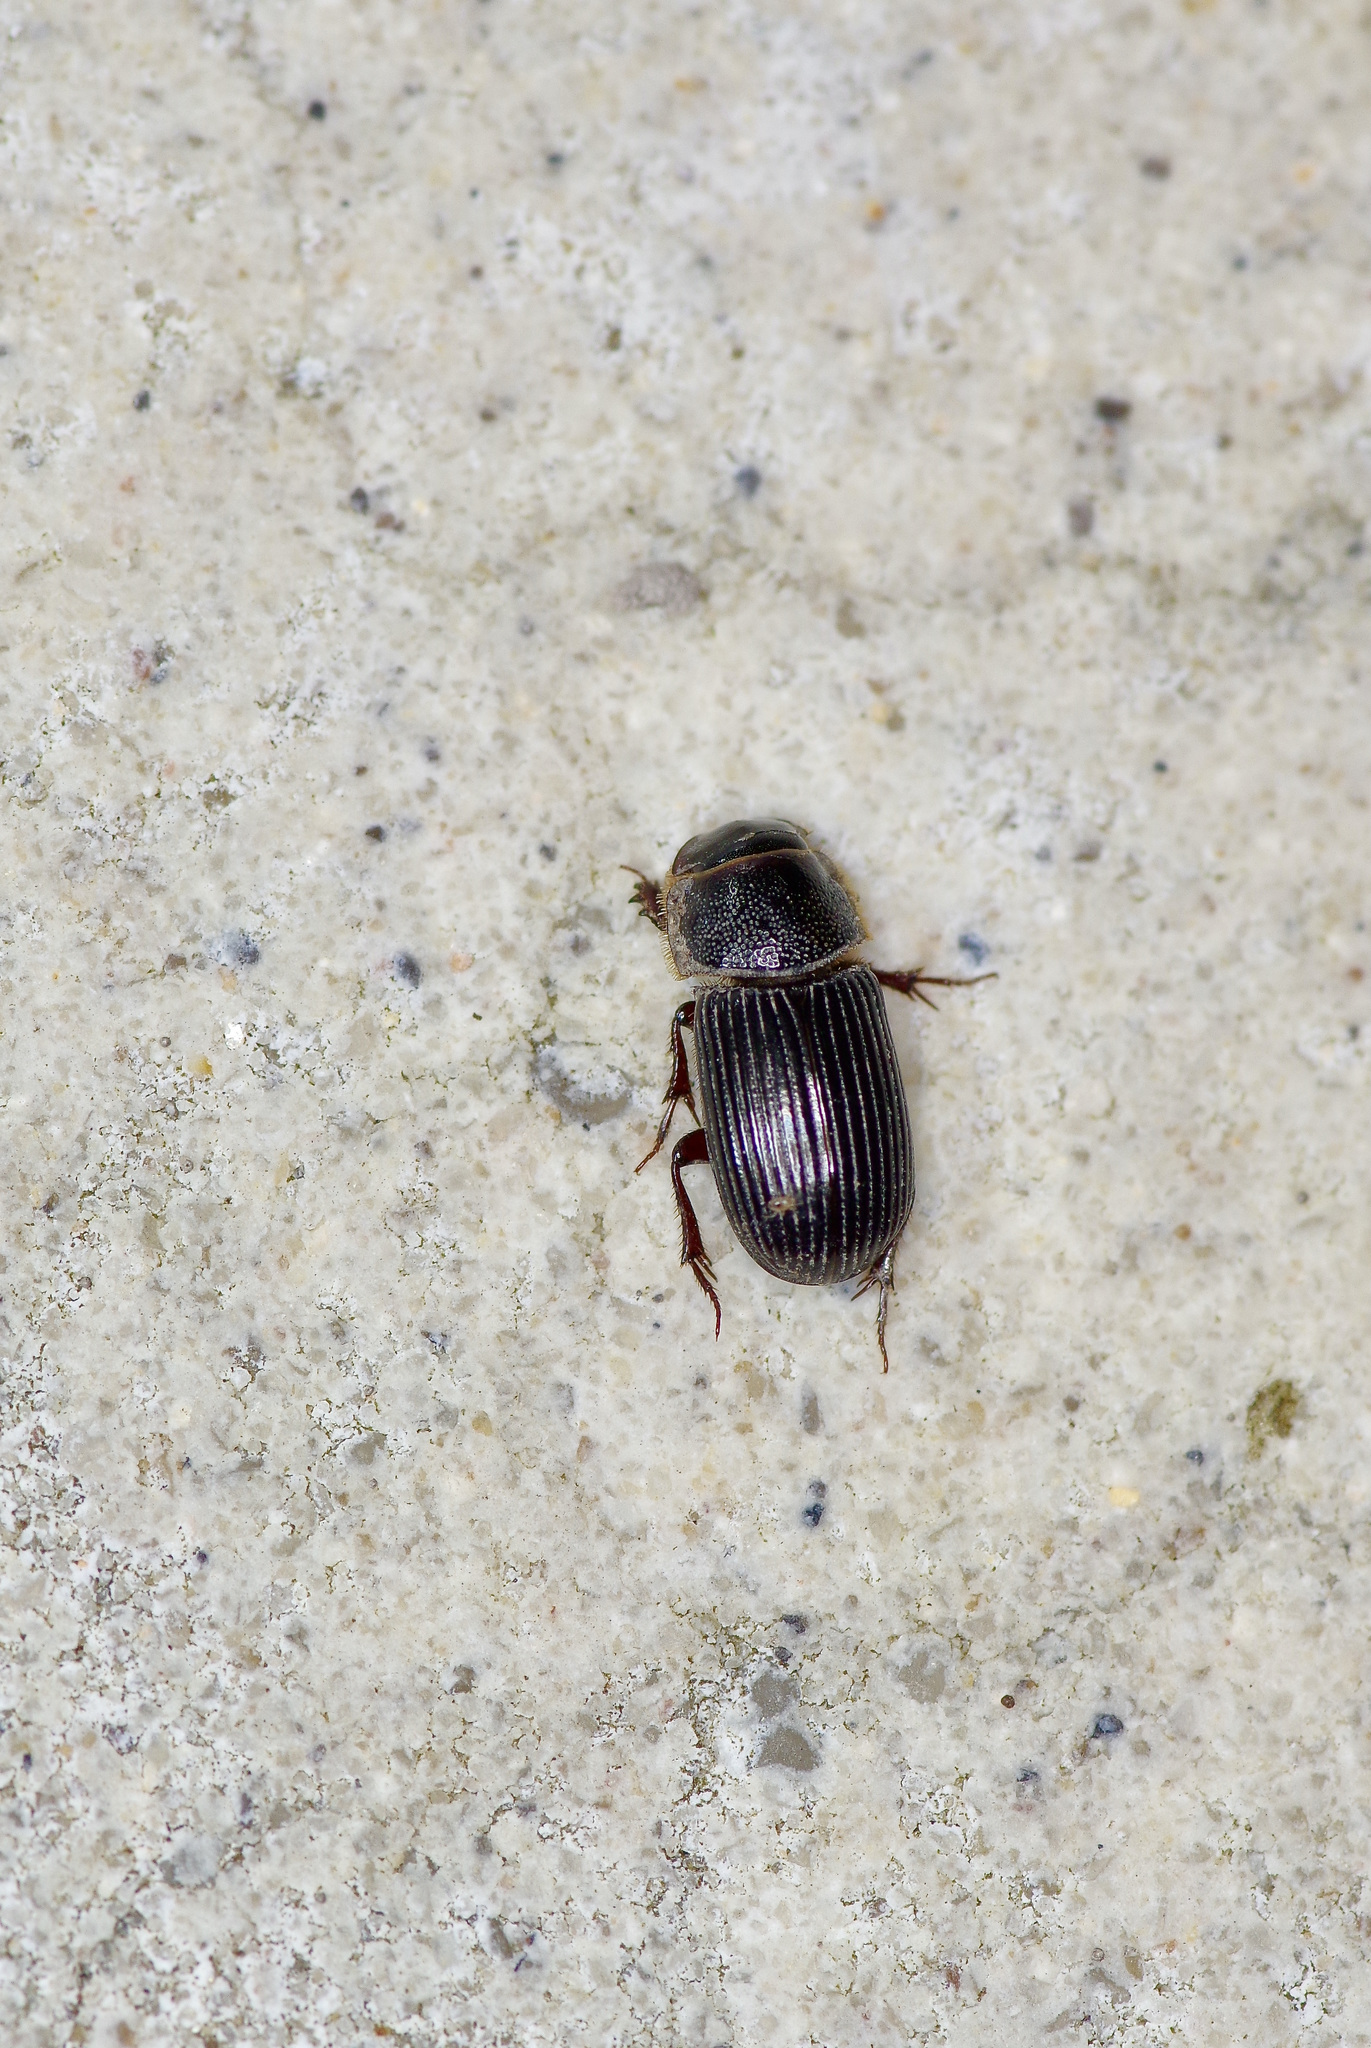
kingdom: Animalia
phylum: Arthropoda
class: Insecta
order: Coleoptera
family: Scarabaeidae
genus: Martineziana
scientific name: Martineziana dutertrei
